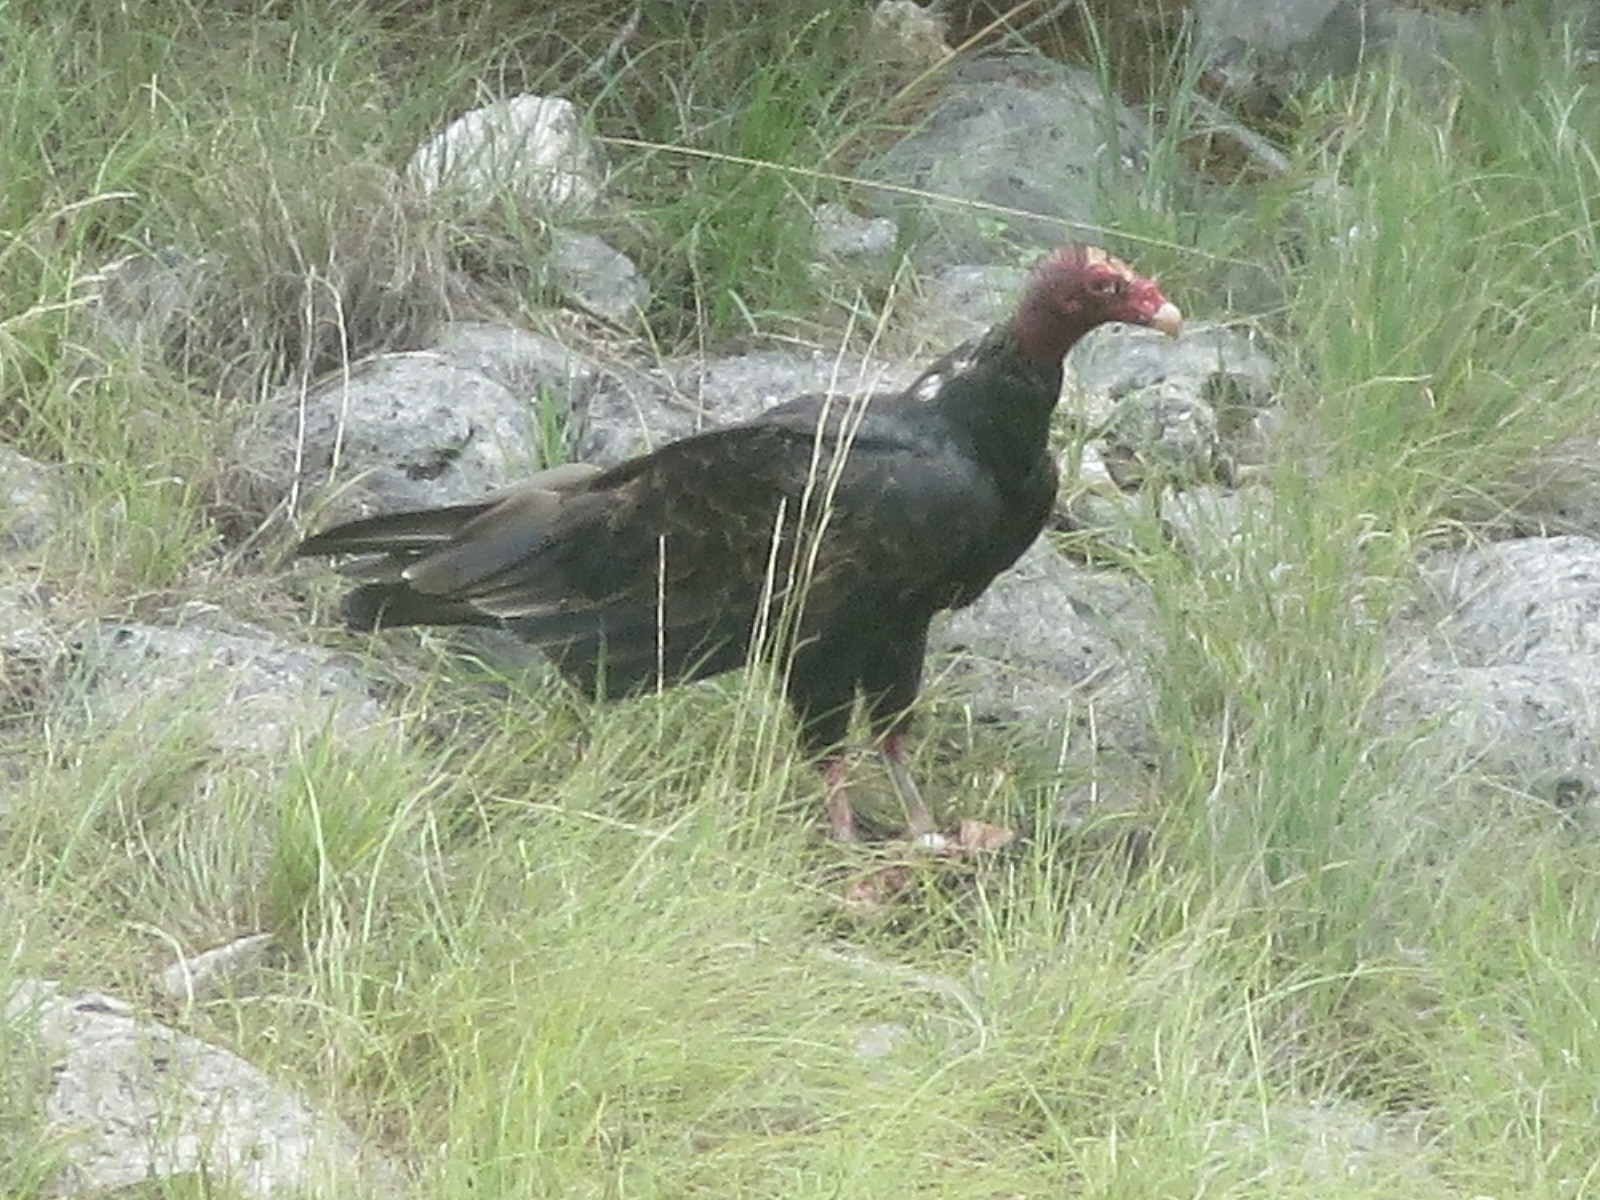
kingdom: Animalia
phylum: Chordata
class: Aves
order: Accipitriformes
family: Cathartidae
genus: Cathartes
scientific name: Cathartes aura
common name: Turkey vulture
